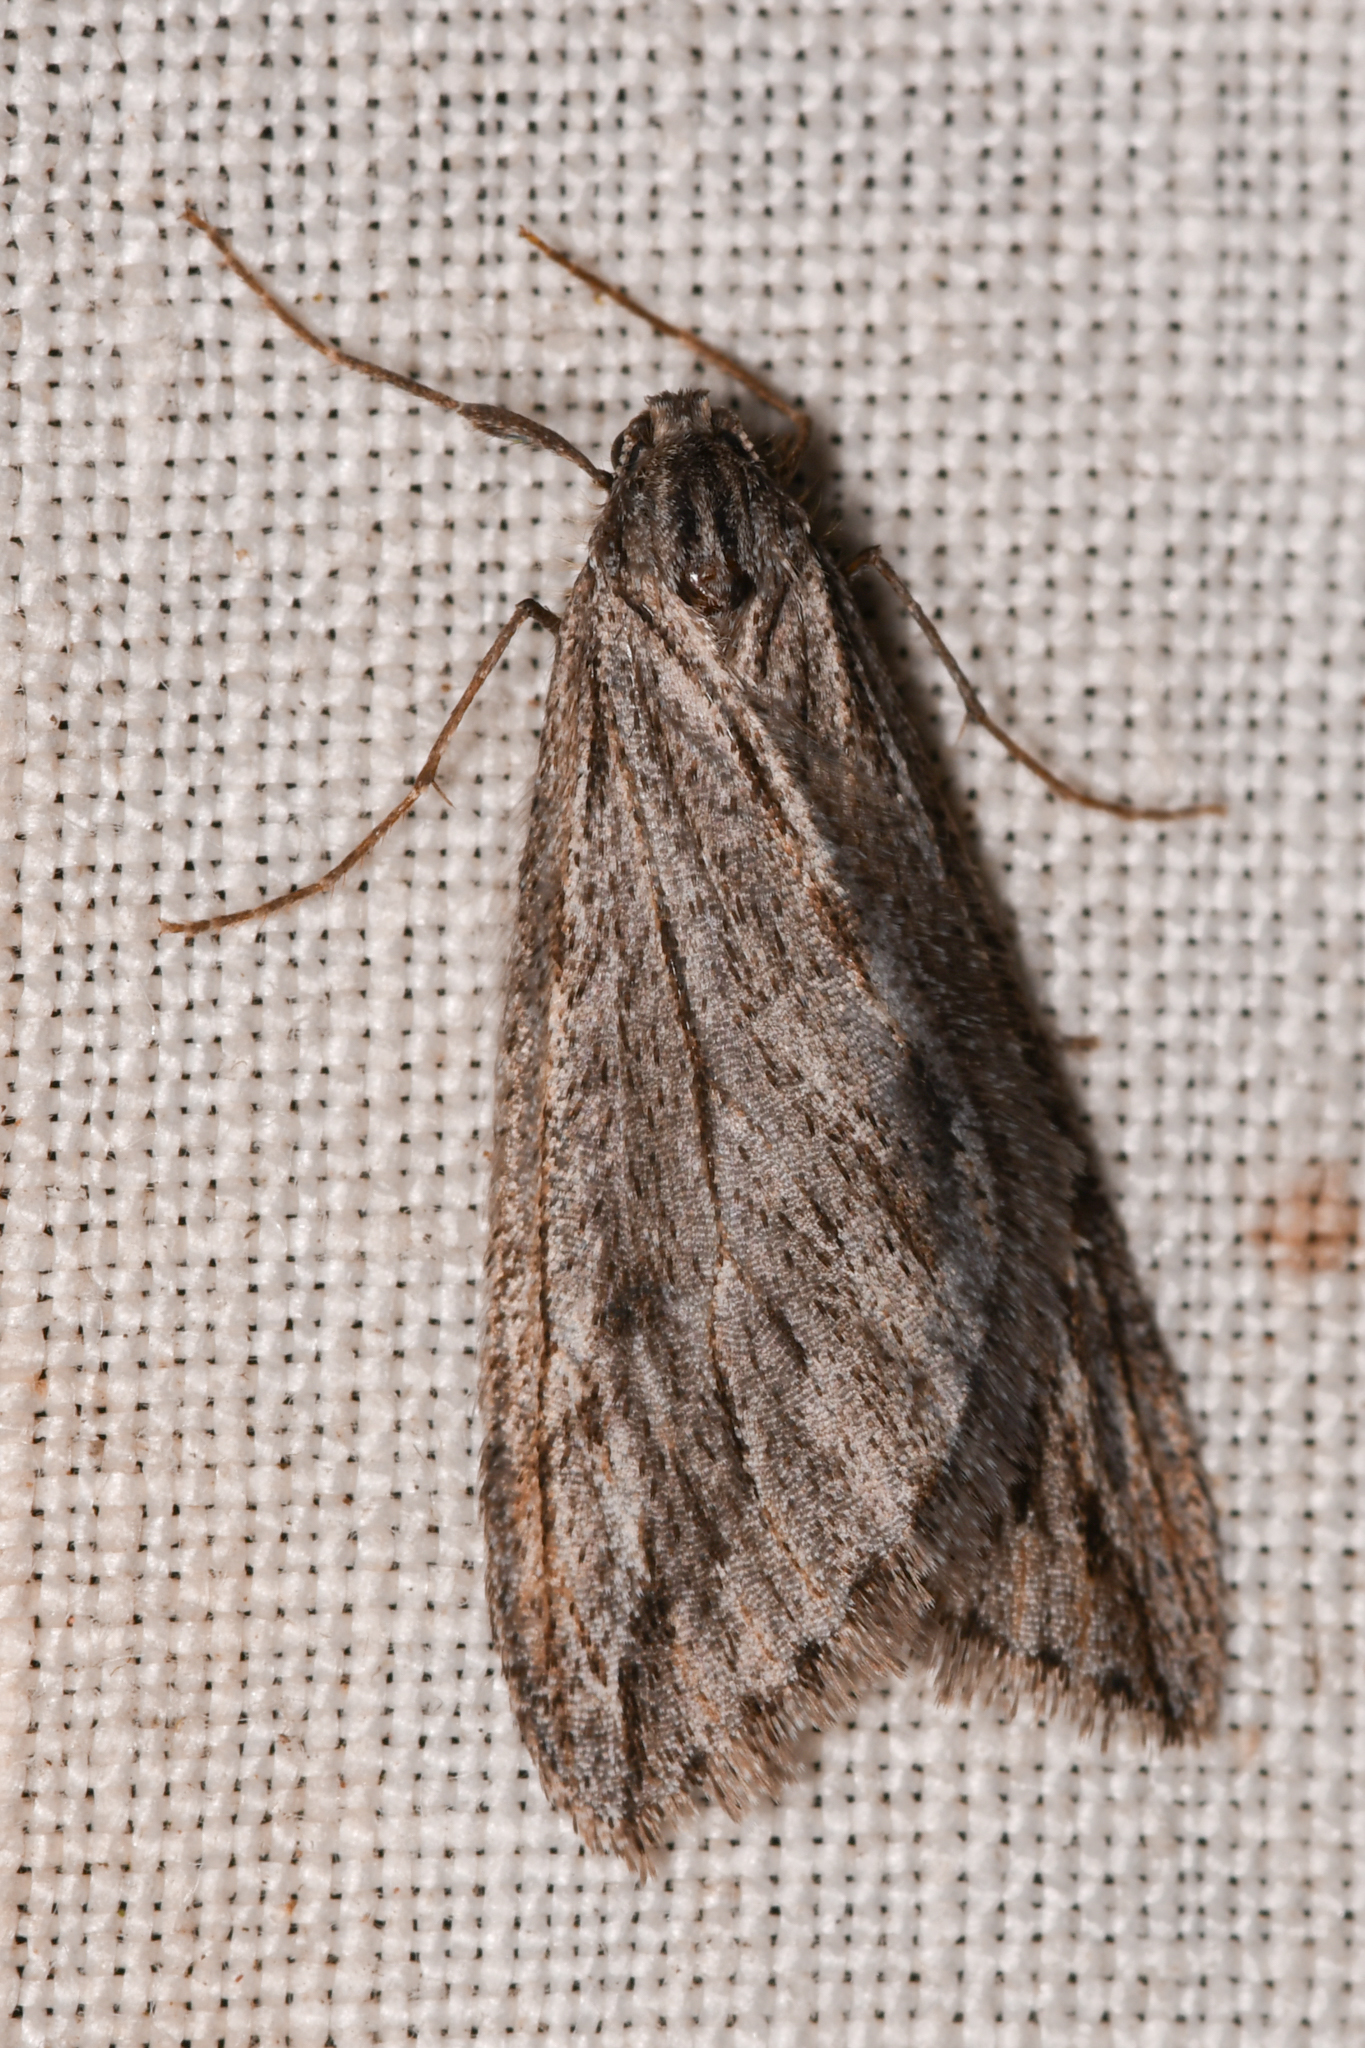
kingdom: Animalia
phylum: Arthropoda
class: Insecta
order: Lepidoptera
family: Geometridae
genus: Paleacrita
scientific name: Paleacrita longiciliata
